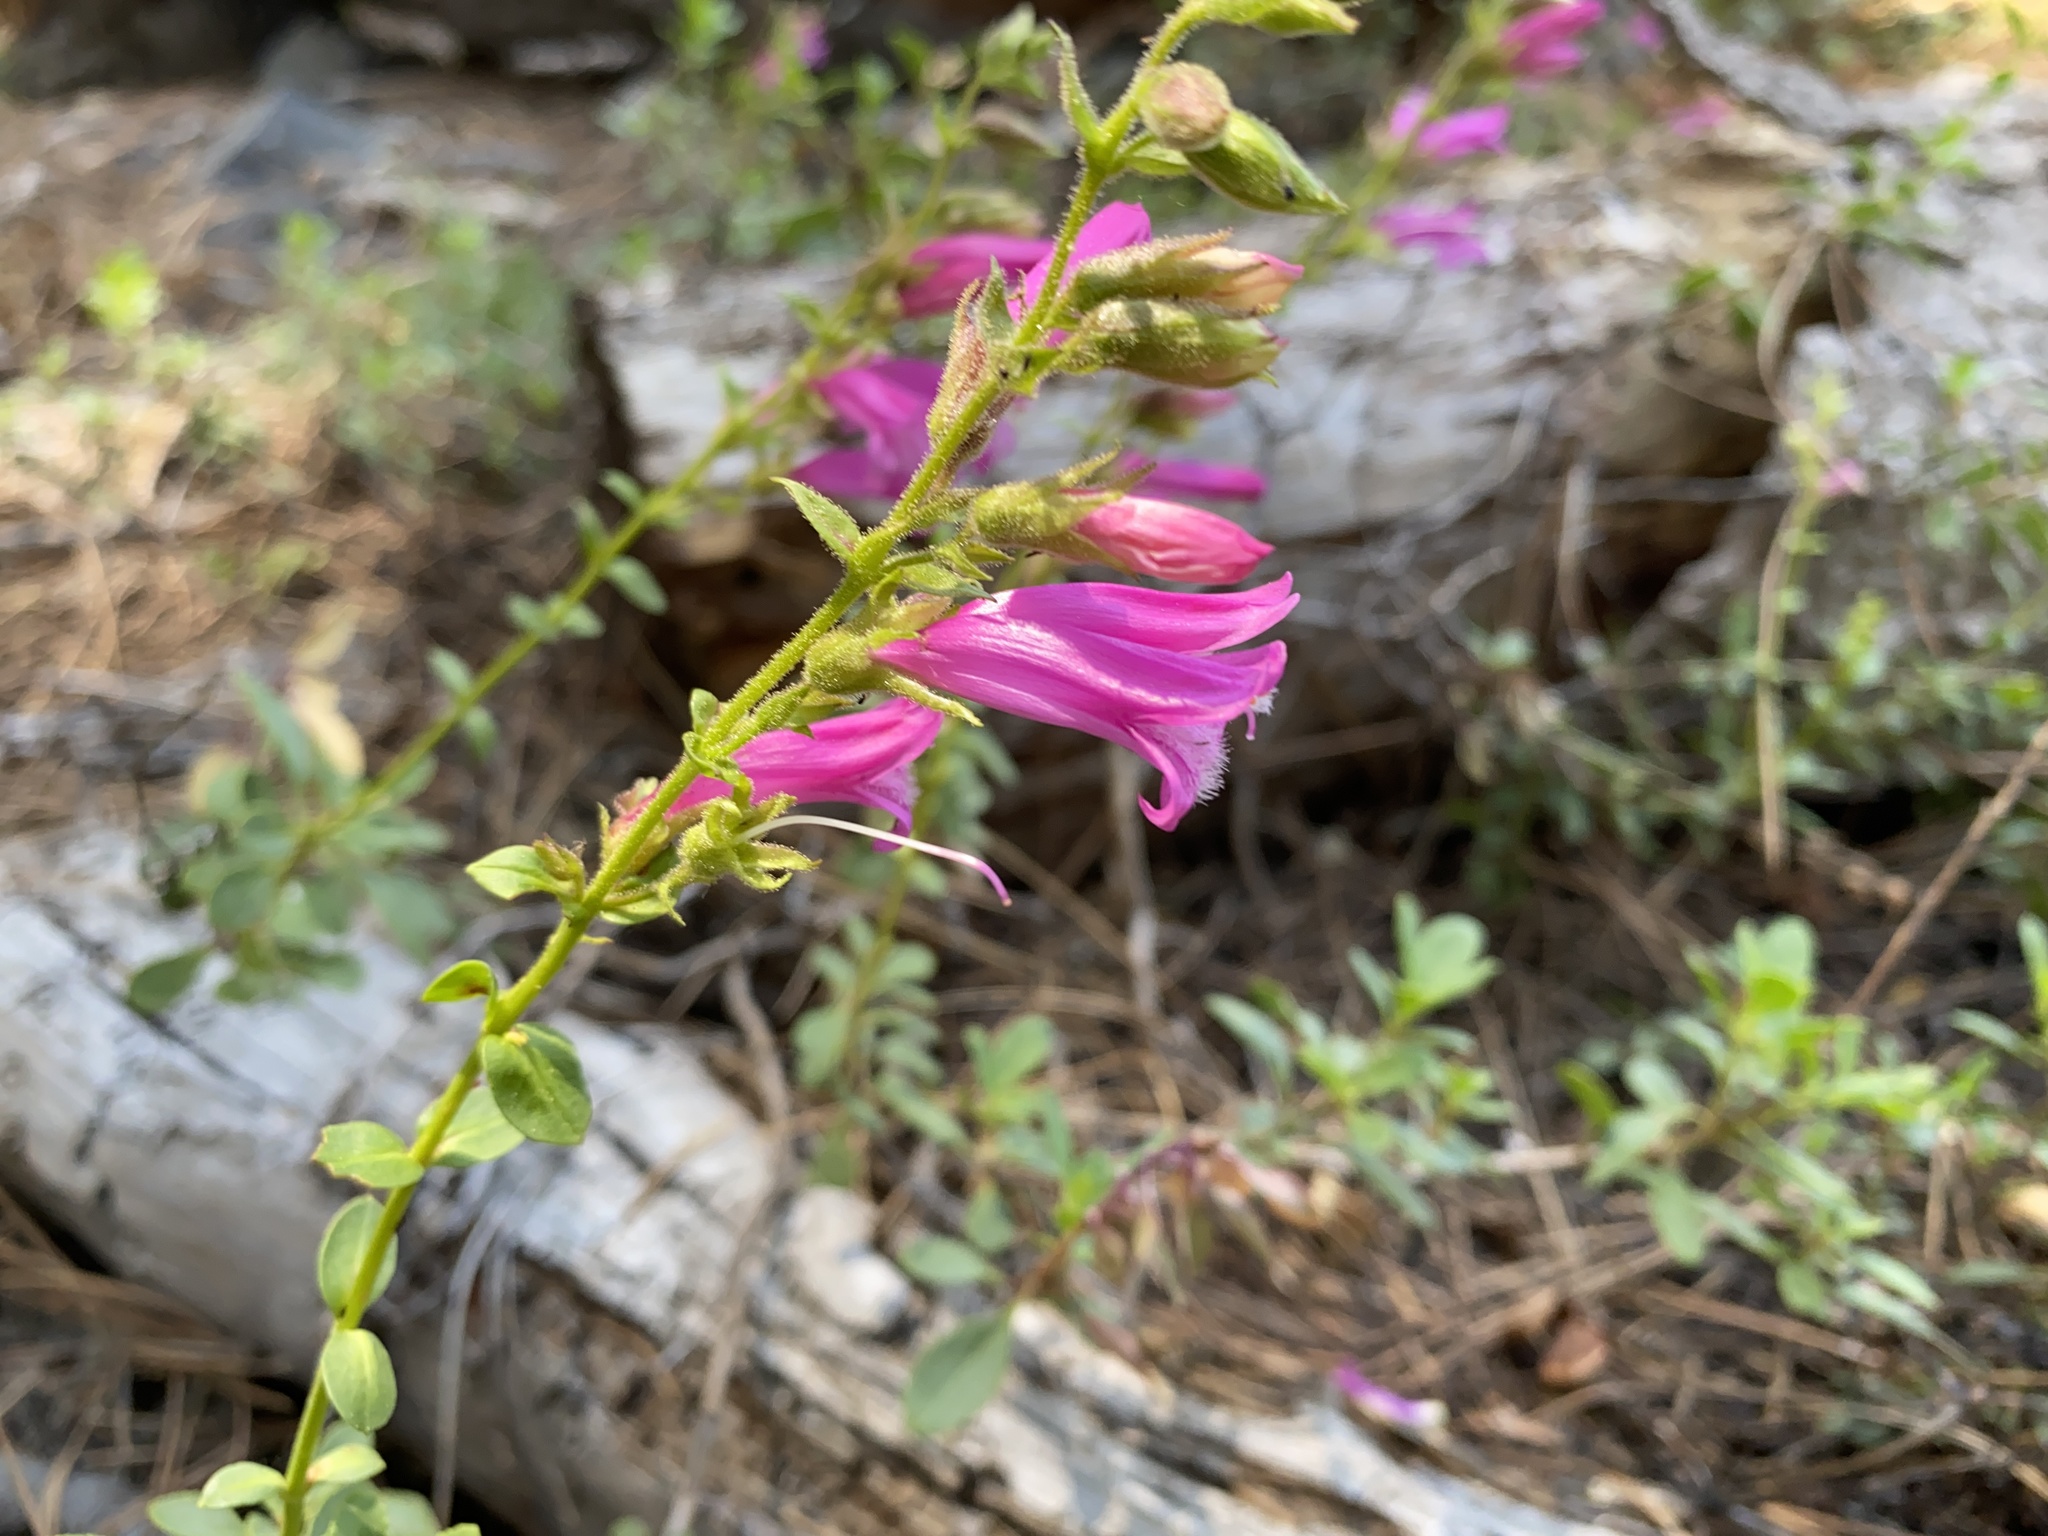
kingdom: Plantae
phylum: Tracheophyta
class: Magnoliopsida
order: Lamiales
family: Plantaginaceae
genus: Penstemon
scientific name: Penstemon newberryi
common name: Mountain-pride
